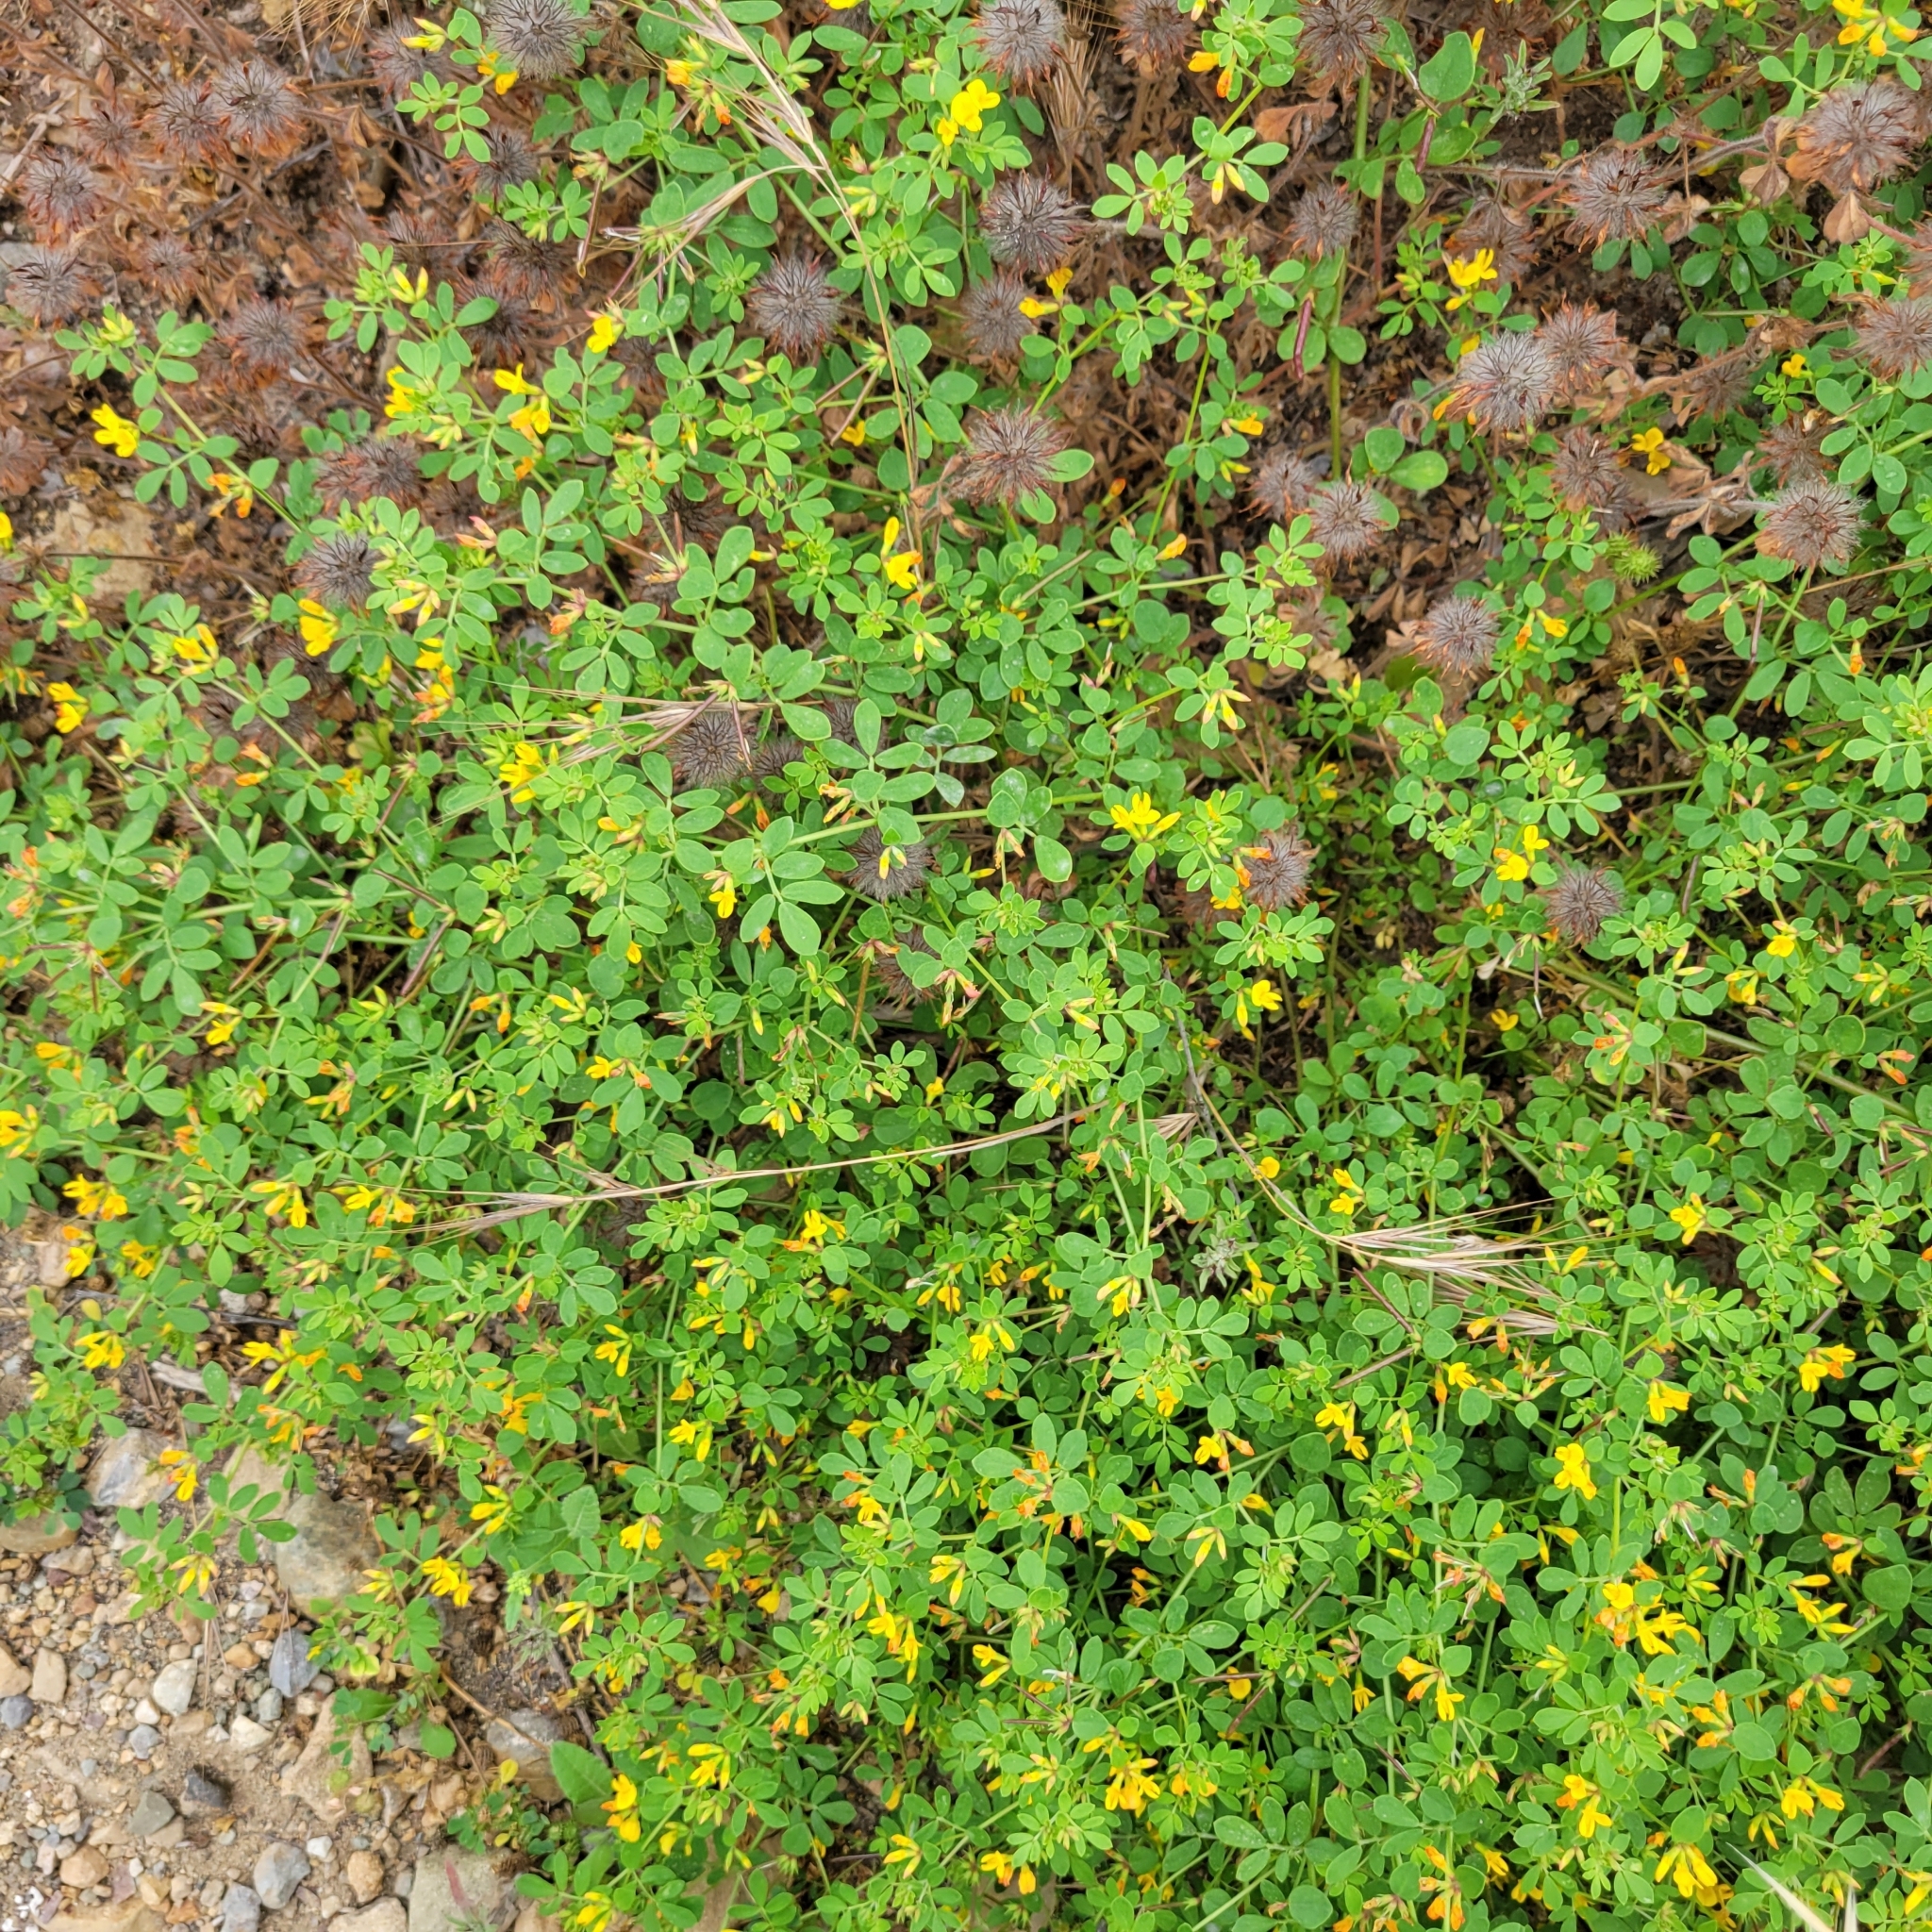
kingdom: Plantae
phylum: Tracheophyta
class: Magnoliopsida
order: Fabales
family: Fabaceae
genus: Acmispon
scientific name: Acmispon maritimus
